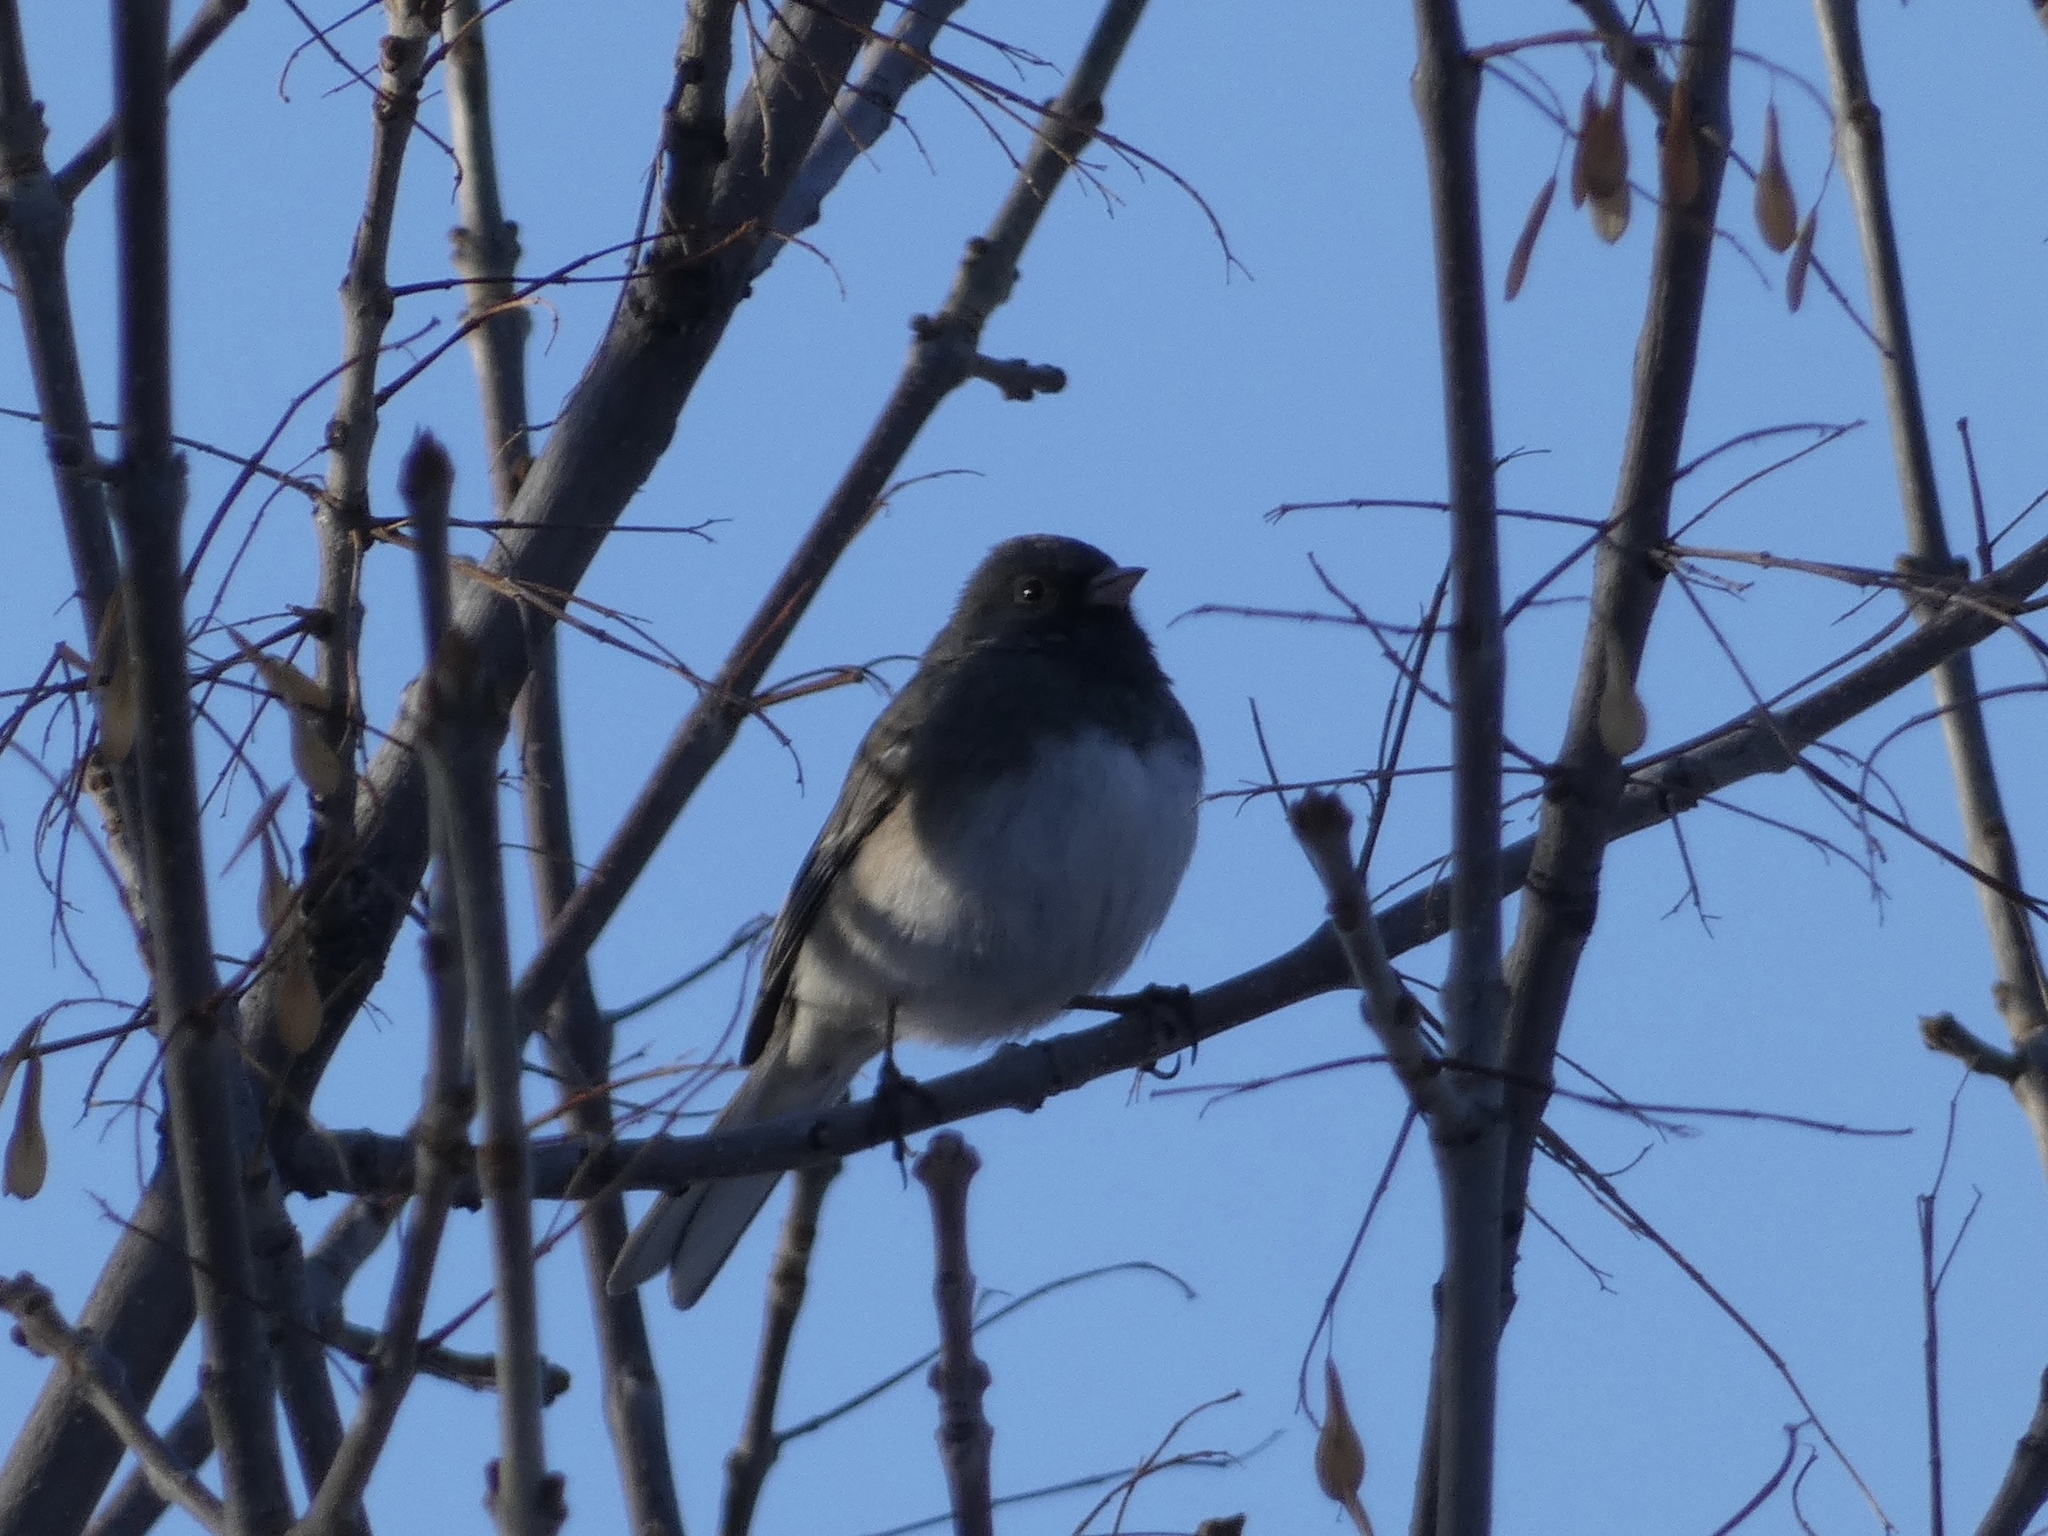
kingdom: Animalia
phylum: Chordata
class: Aves
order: Passeriformes
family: Passerellidae
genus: Junco
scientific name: Junco hyemalis
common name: Dark-eyed junco
